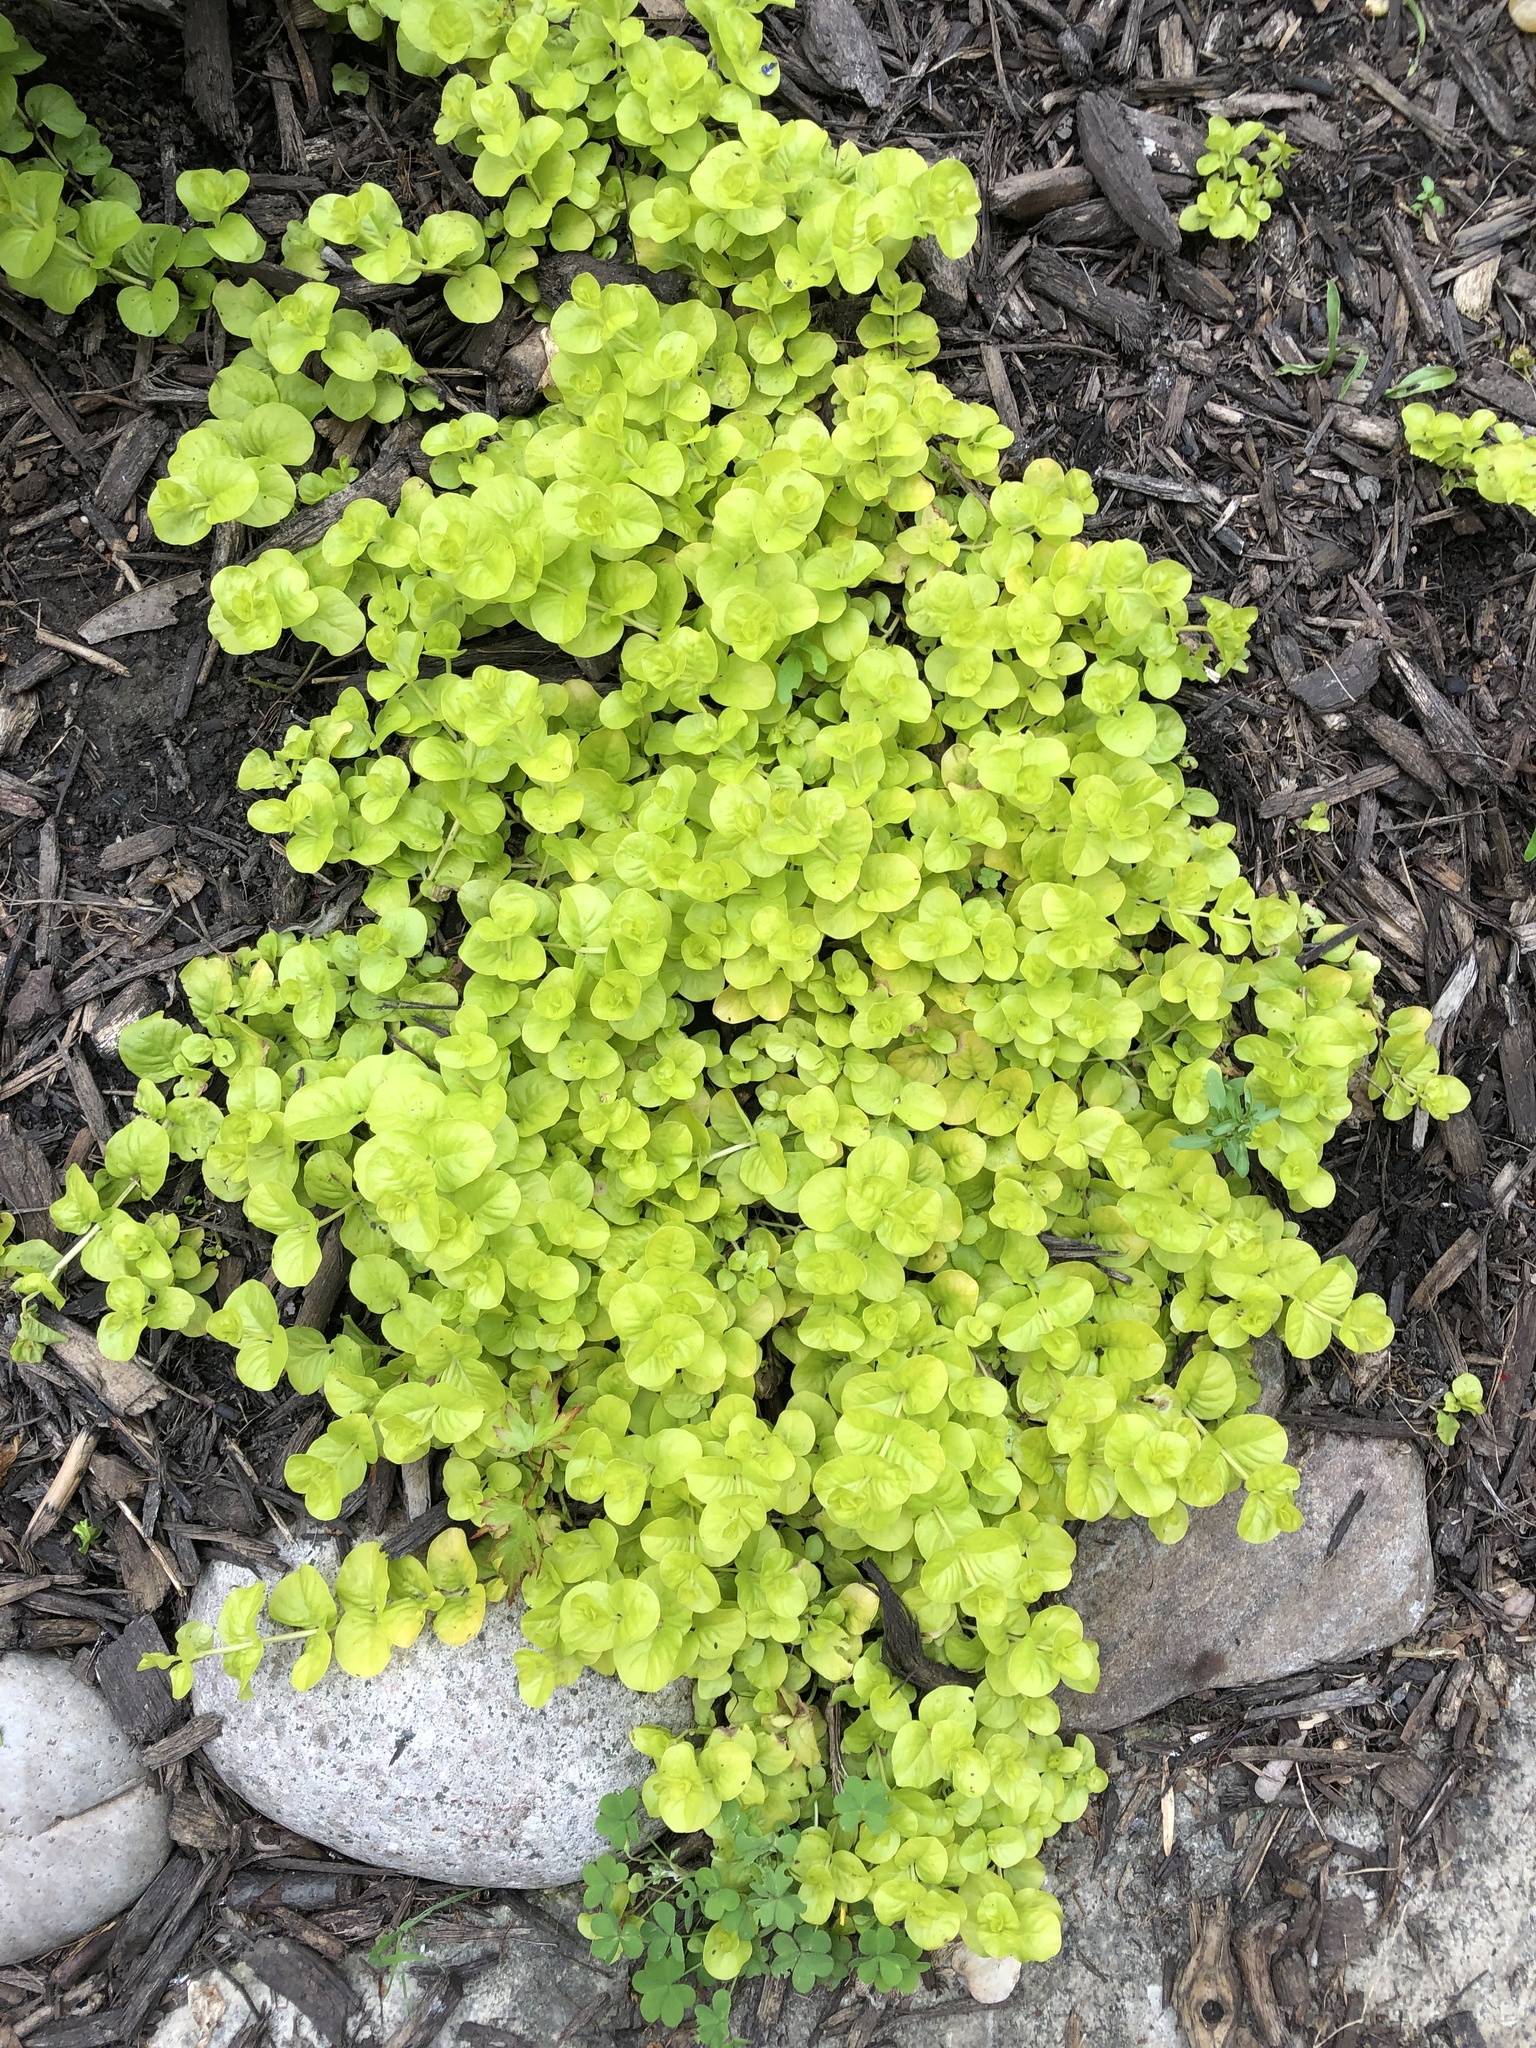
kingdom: Plantae
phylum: Tracheophyta
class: Magnoliopsida
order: Ericales
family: Primulaceae
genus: Lysimachia
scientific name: Lysimachia nummularia
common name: Moneywort
